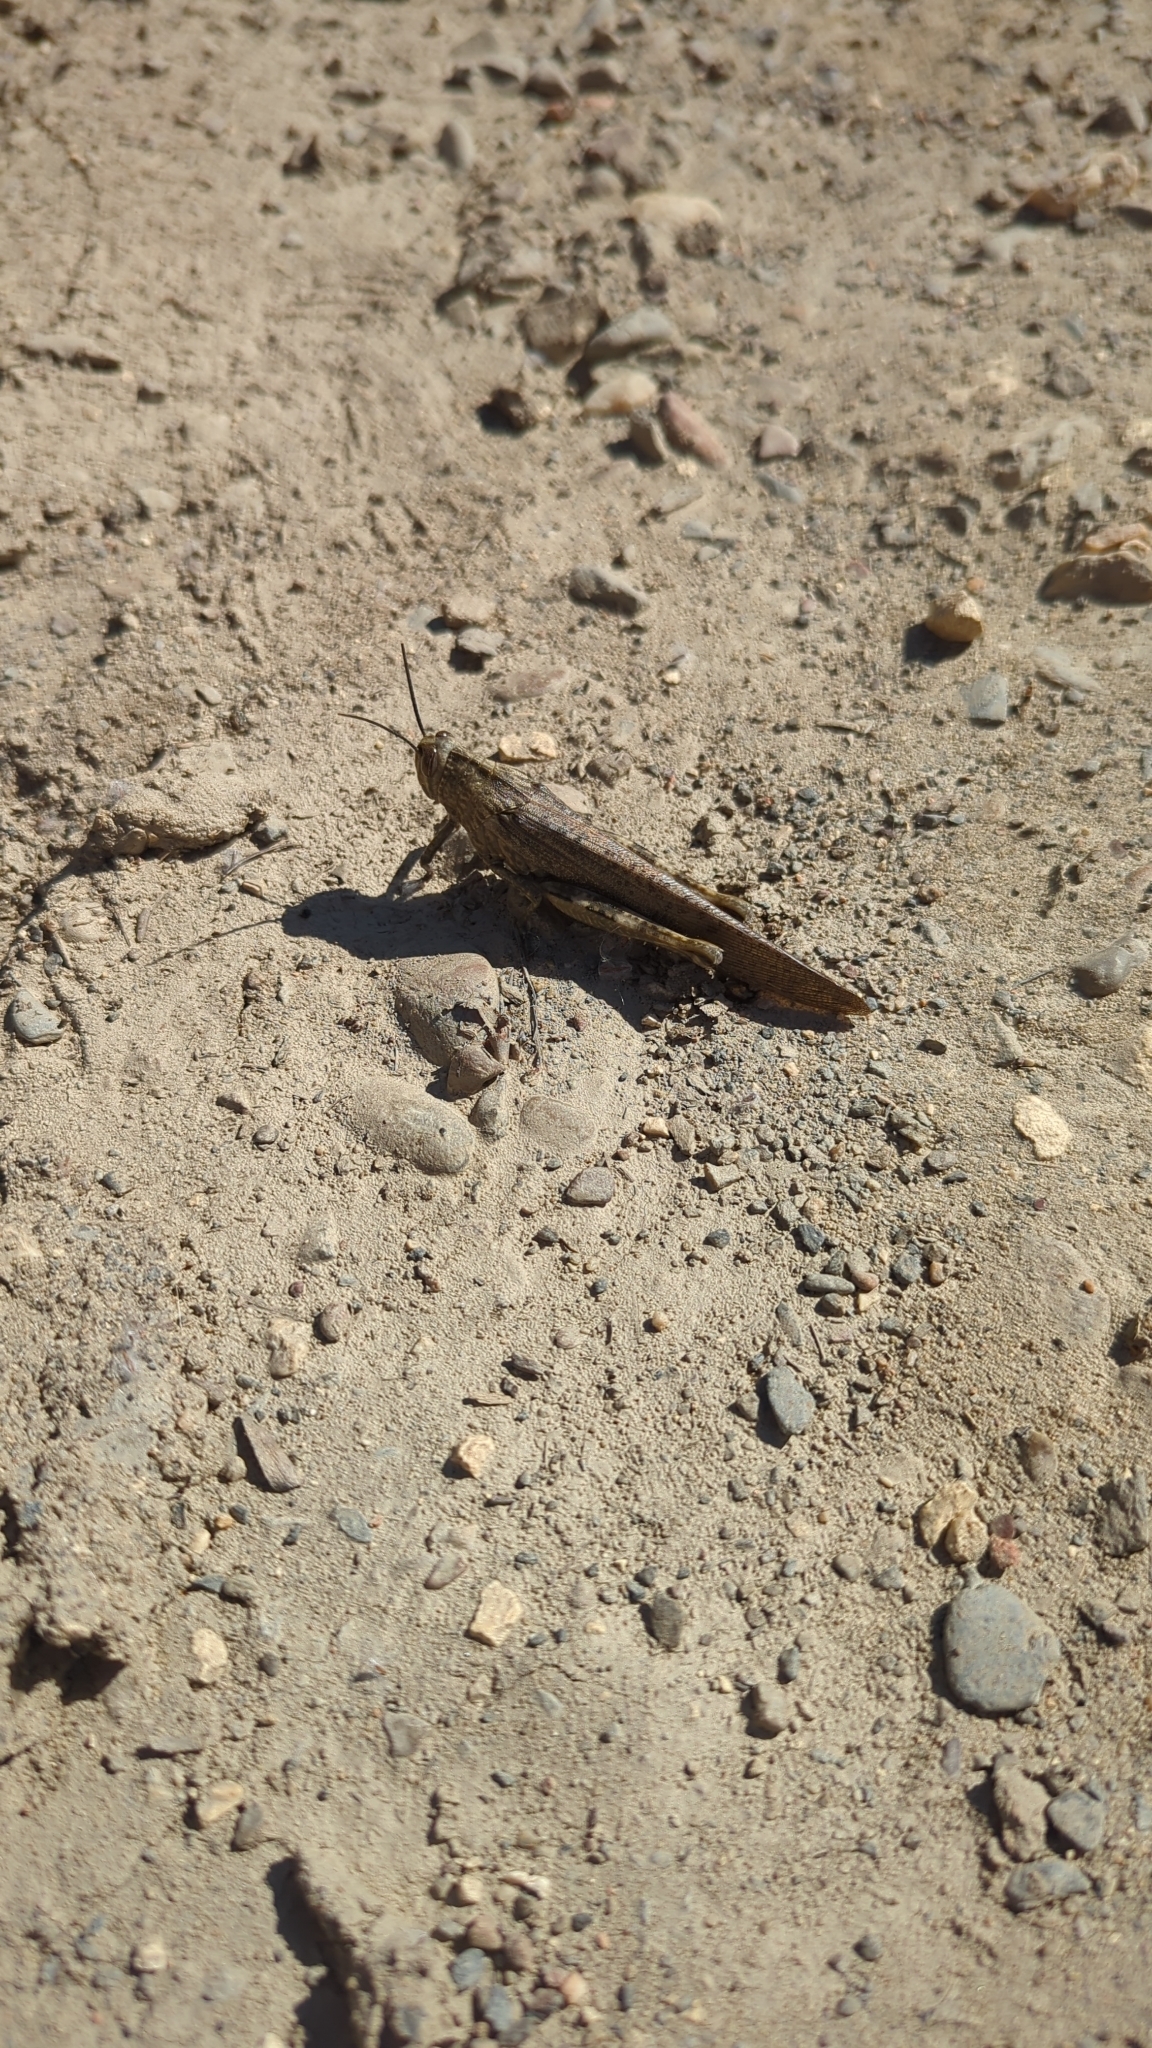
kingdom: Animalia
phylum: Arthropoda
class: Insecta
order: Orthoptera
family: Acrididae
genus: Anacridium
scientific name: Anacridium aegyptium
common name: Egyptian grasshopper
